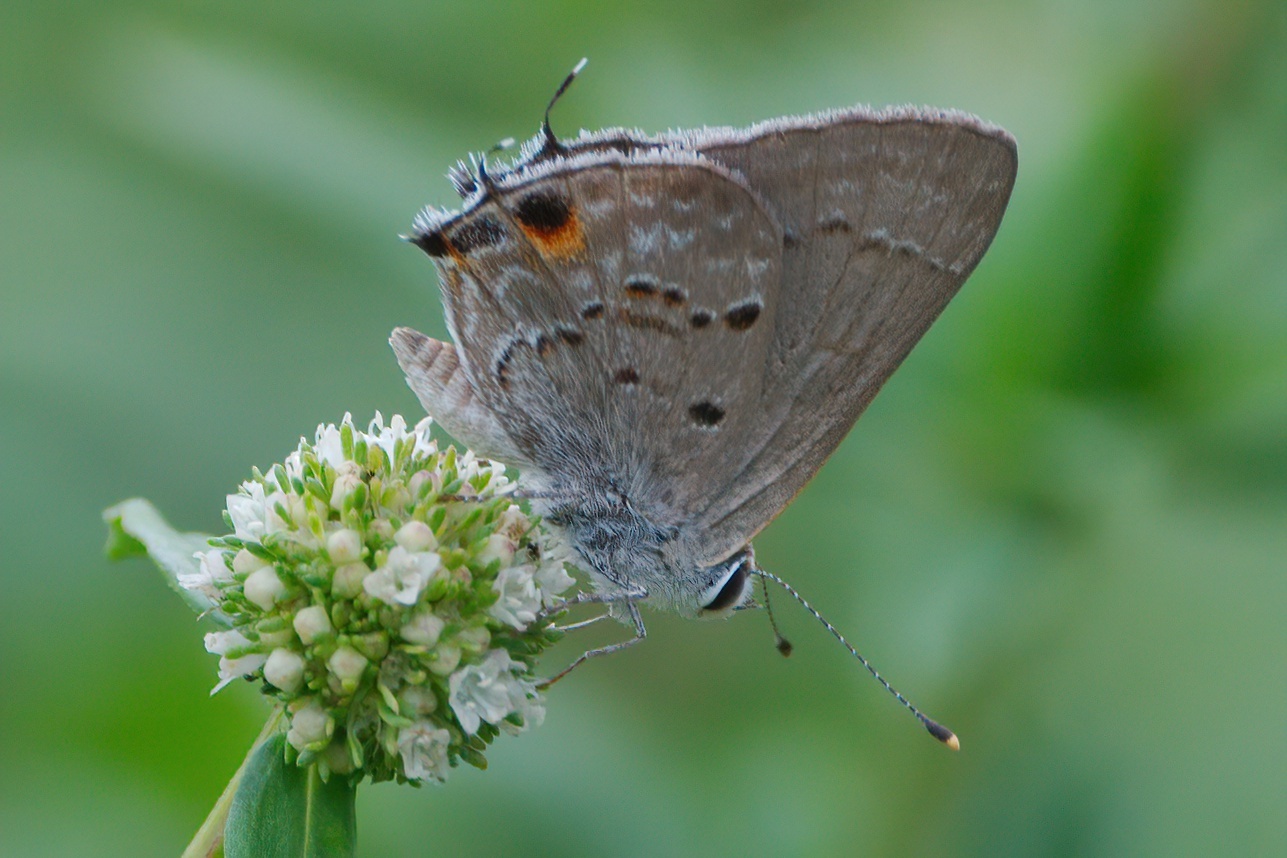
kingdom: Animalia
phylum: Arthropoda
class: Insecta
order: Lepidoptera
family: Lycaenidae
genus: Callicista
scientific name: Callicista columella
